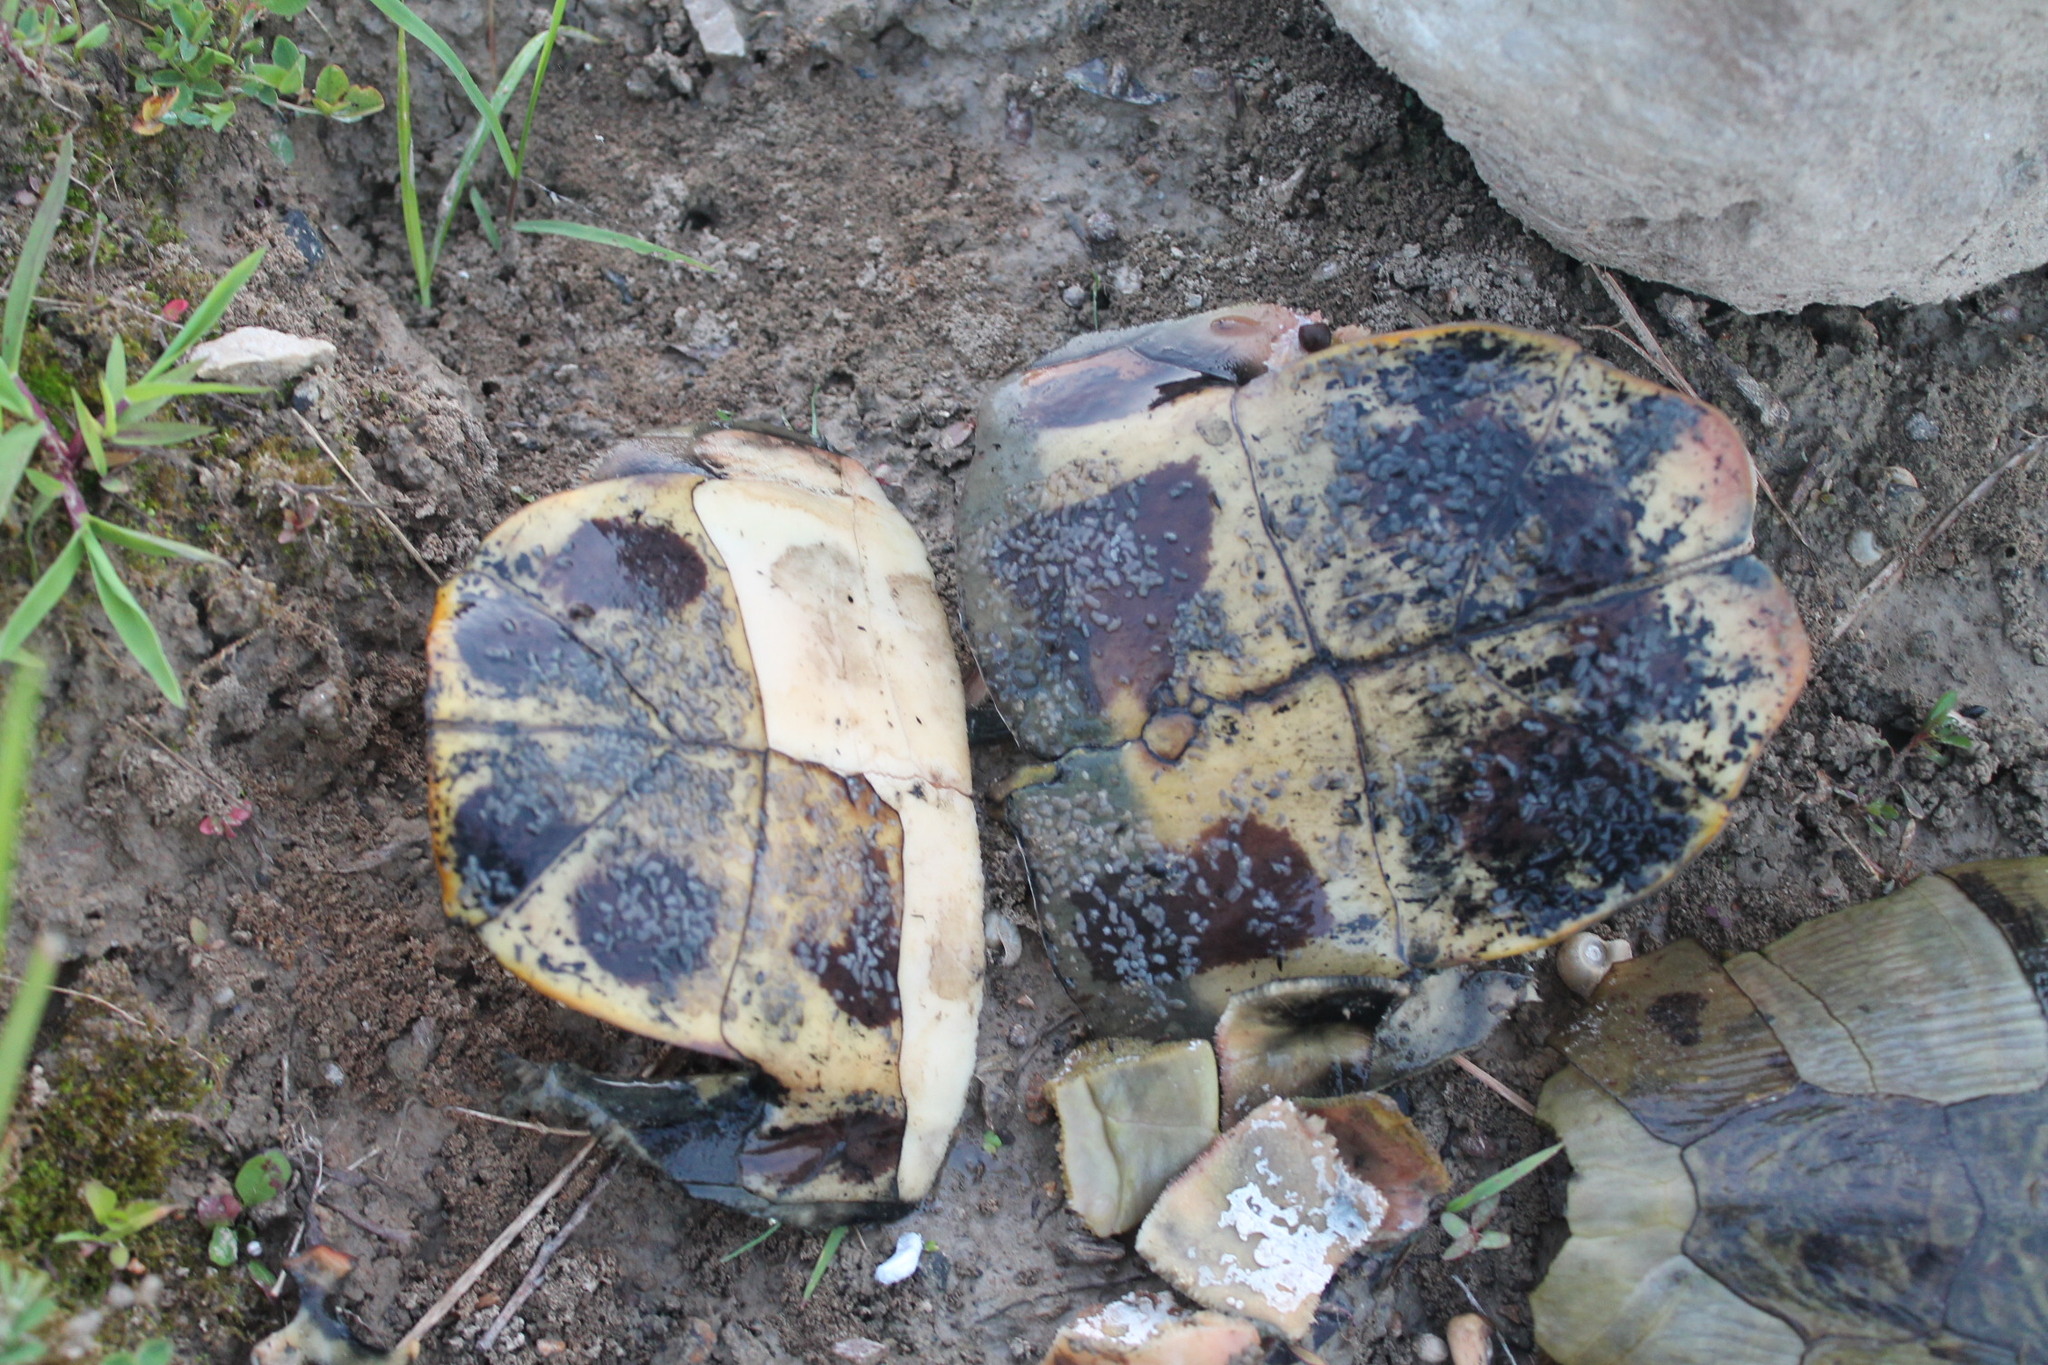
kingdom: Animalia
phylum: Chordata
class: Testudines
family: Emydidae
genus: Trachemys
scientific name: Trachemys scripta
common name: Slider
